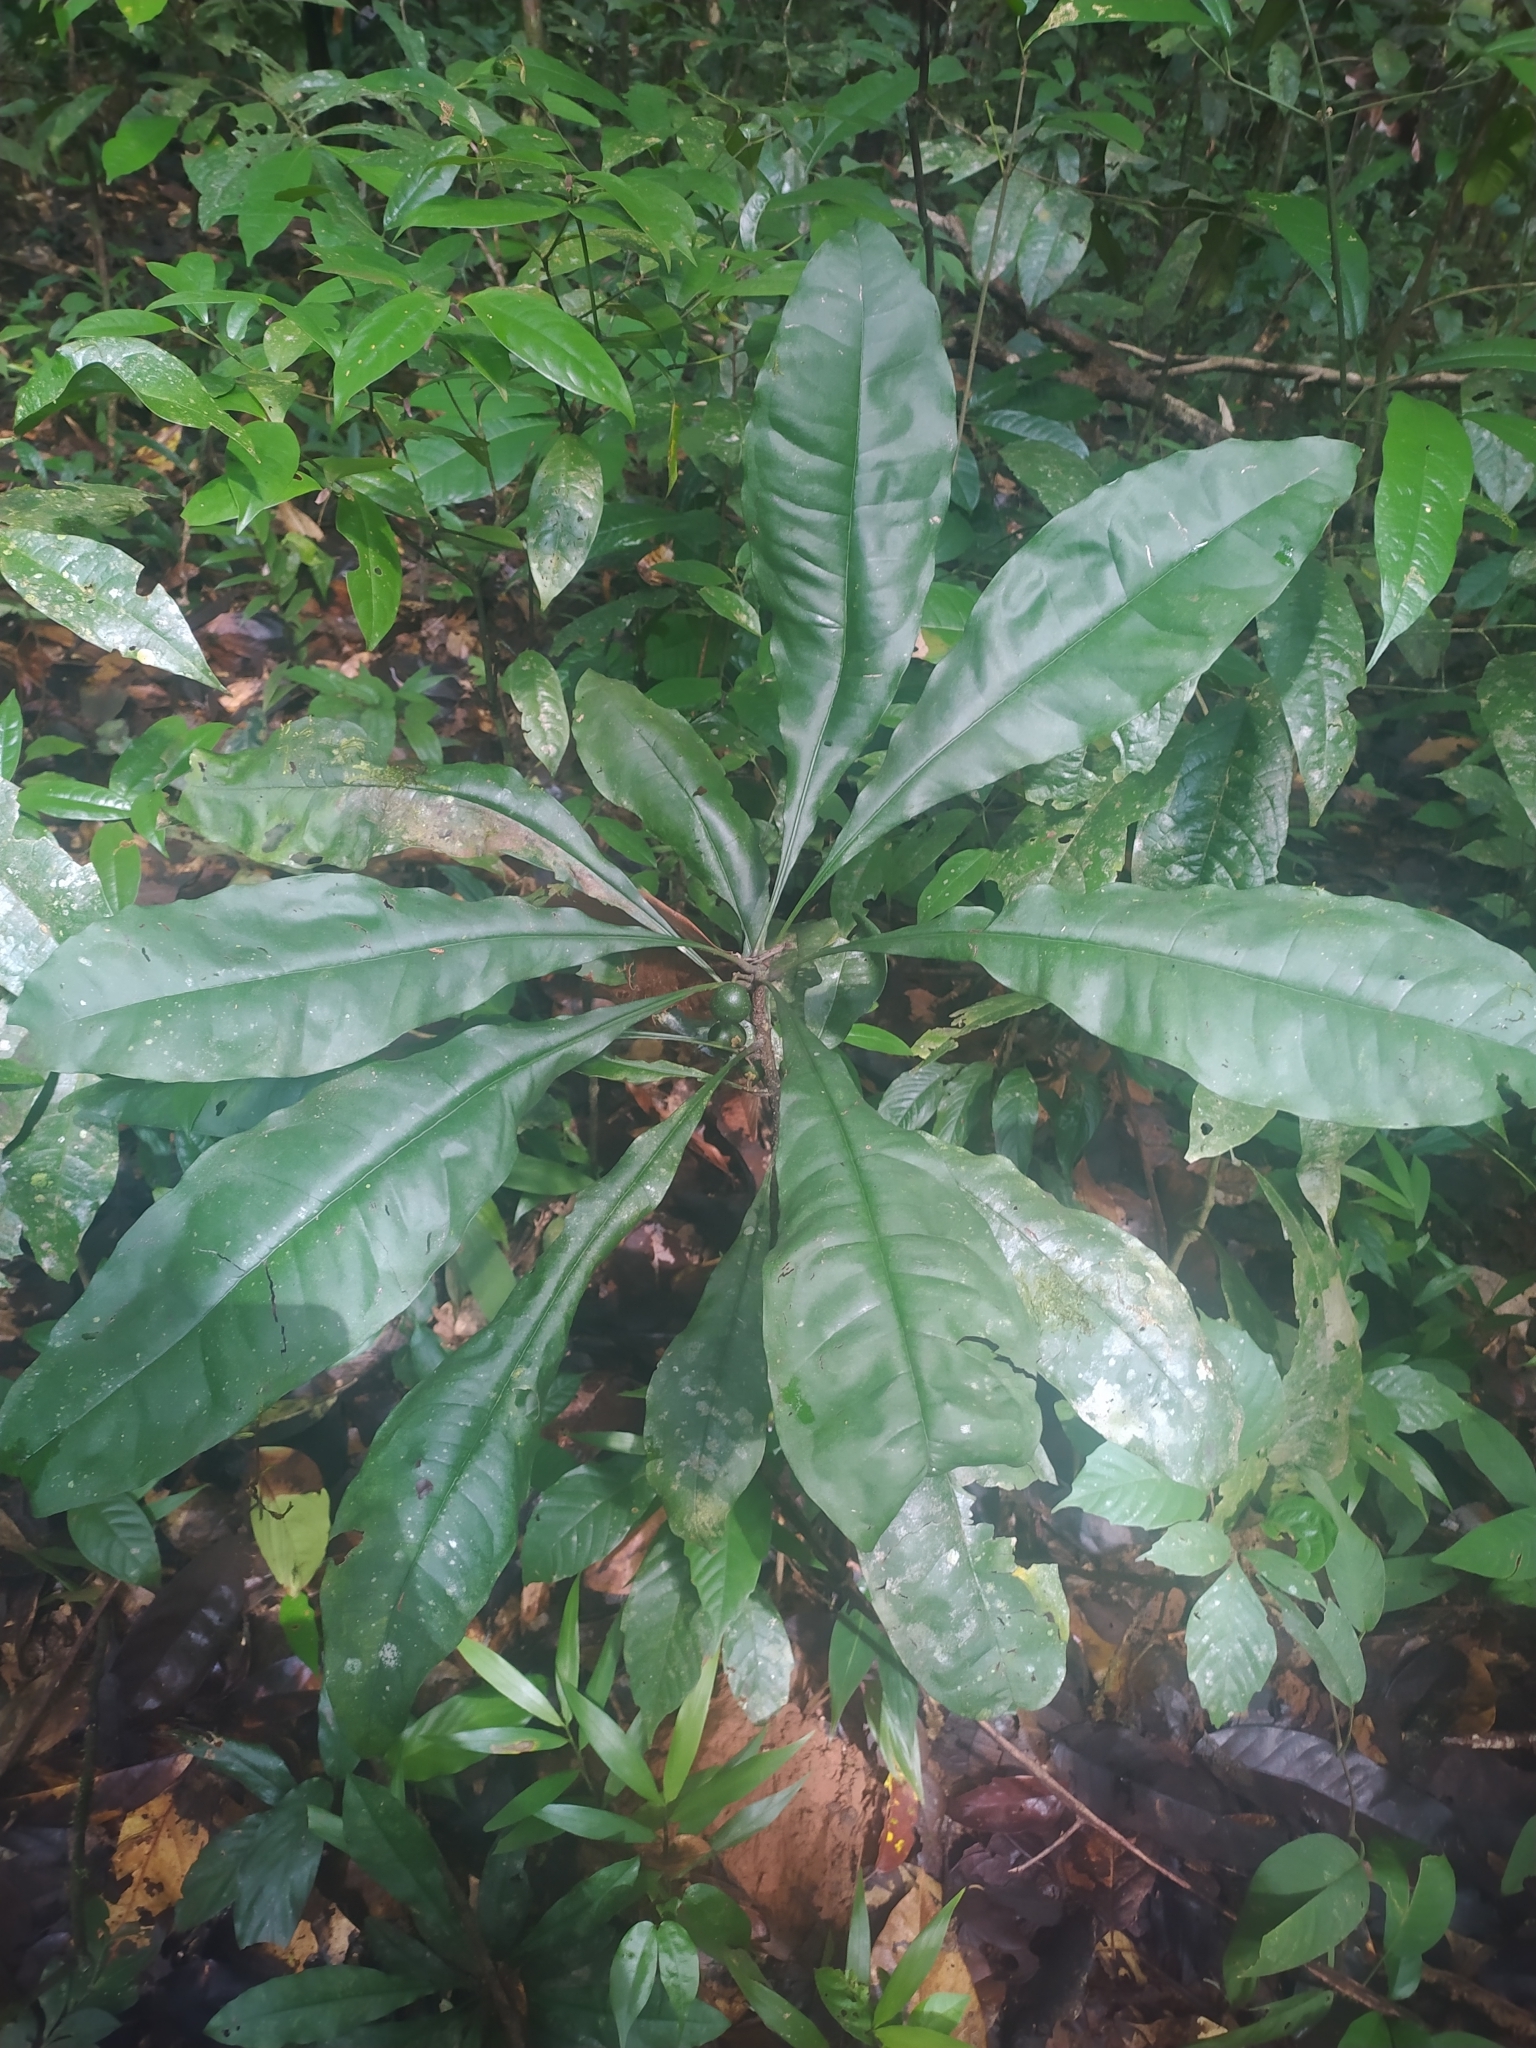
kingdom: Plantae
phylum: Tracheophyta
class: Magnoliopsida
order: Ericales
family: Primulaceae
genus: Clavija
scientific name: Clavija lancifolia
